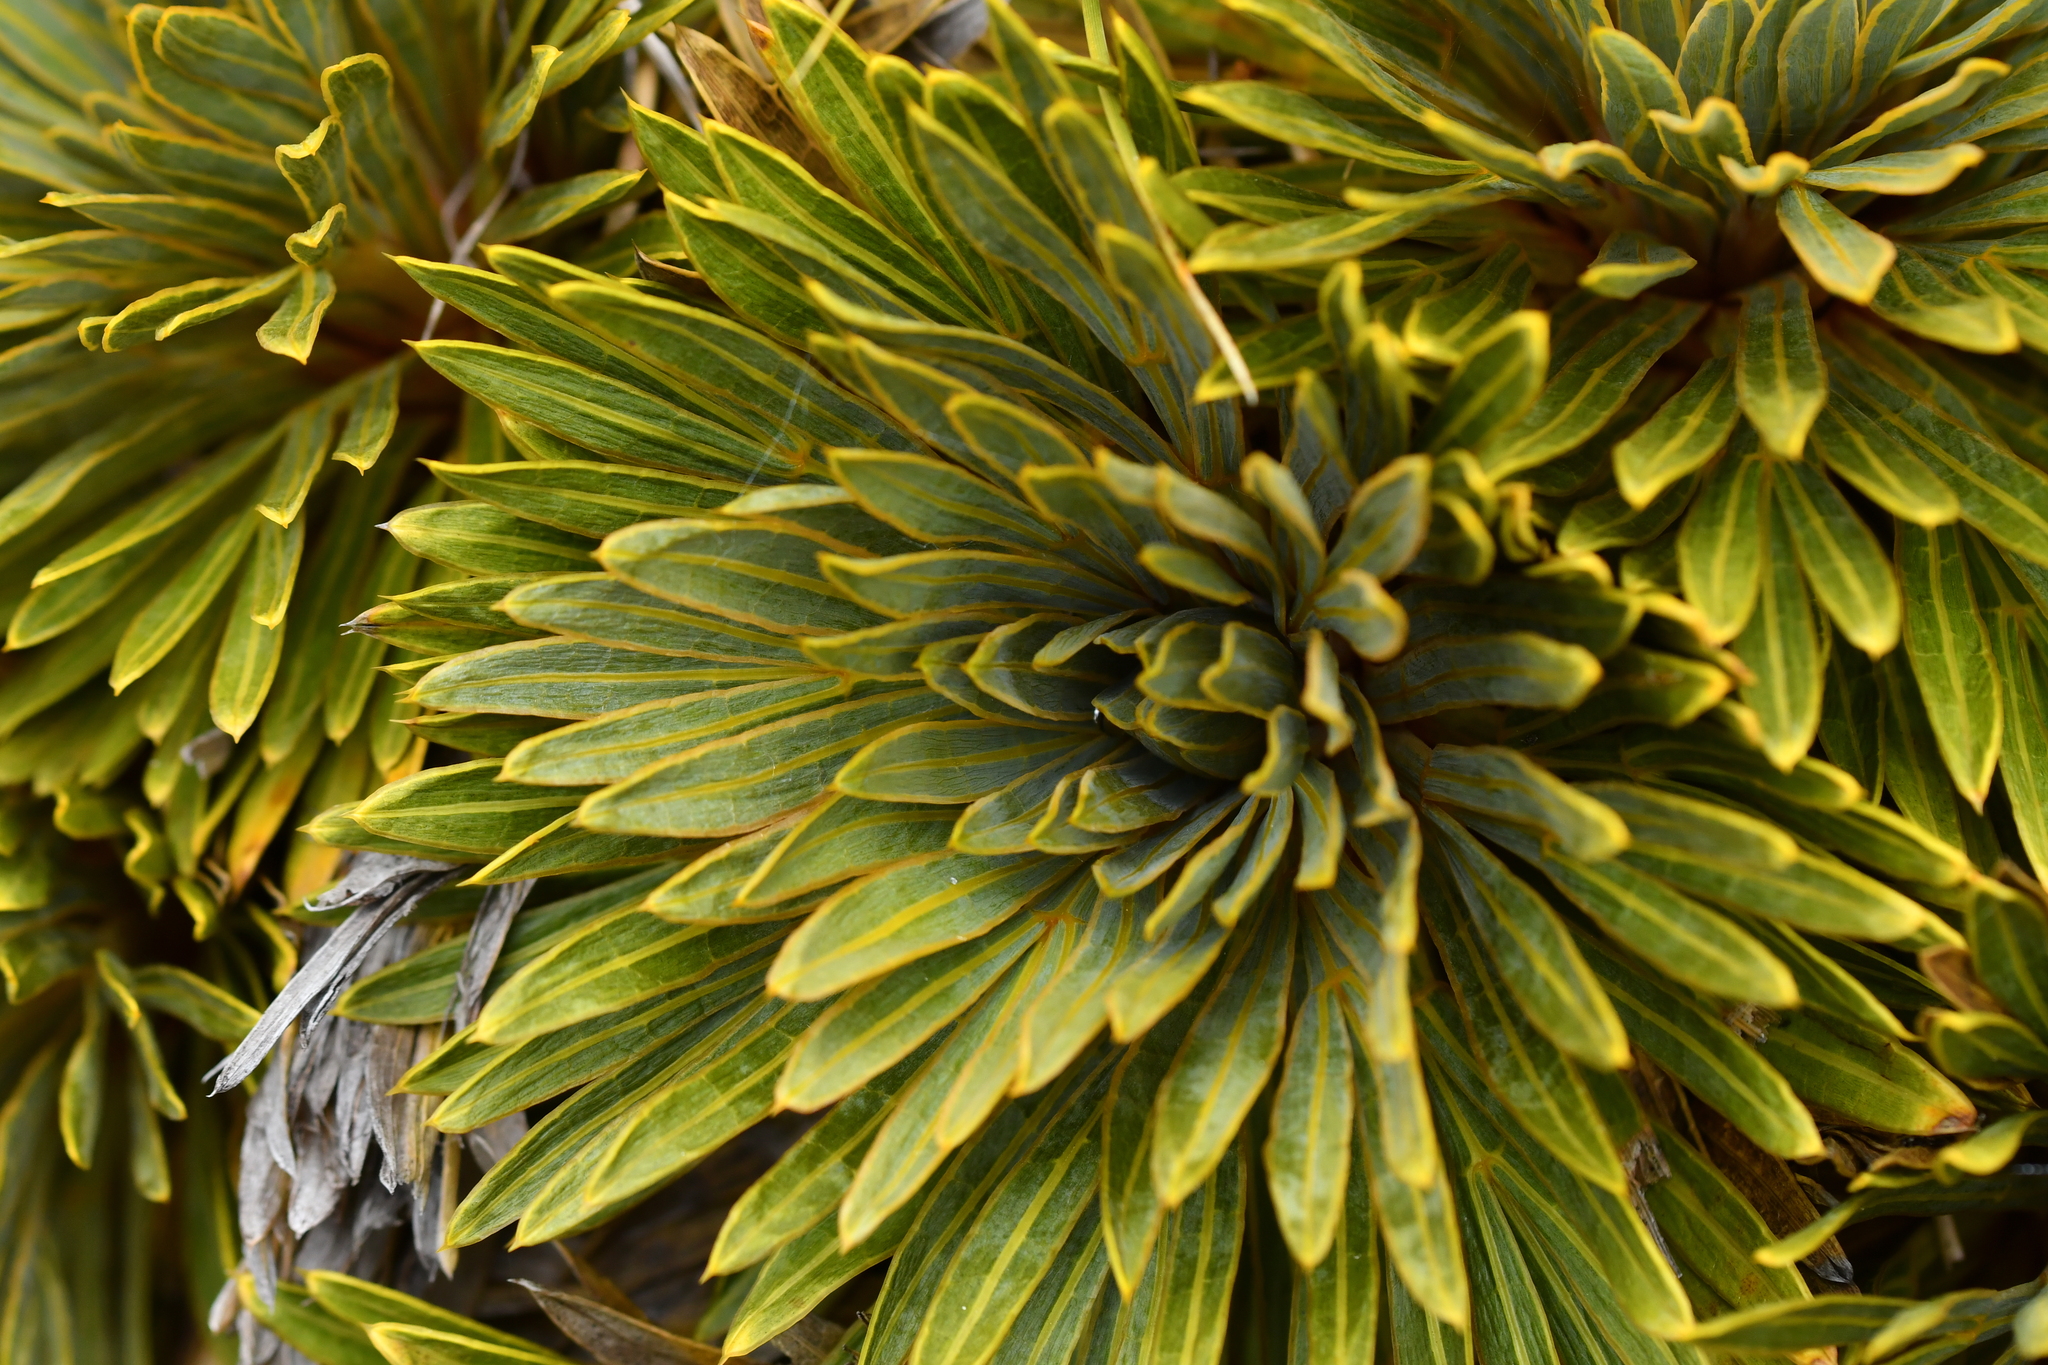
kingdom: Plantae
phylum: Tracheophyta
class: Magnoliopsida
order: Apiales
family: Apiaceae
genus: Aciphylla
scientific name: Aciphylla crosby-smithii
